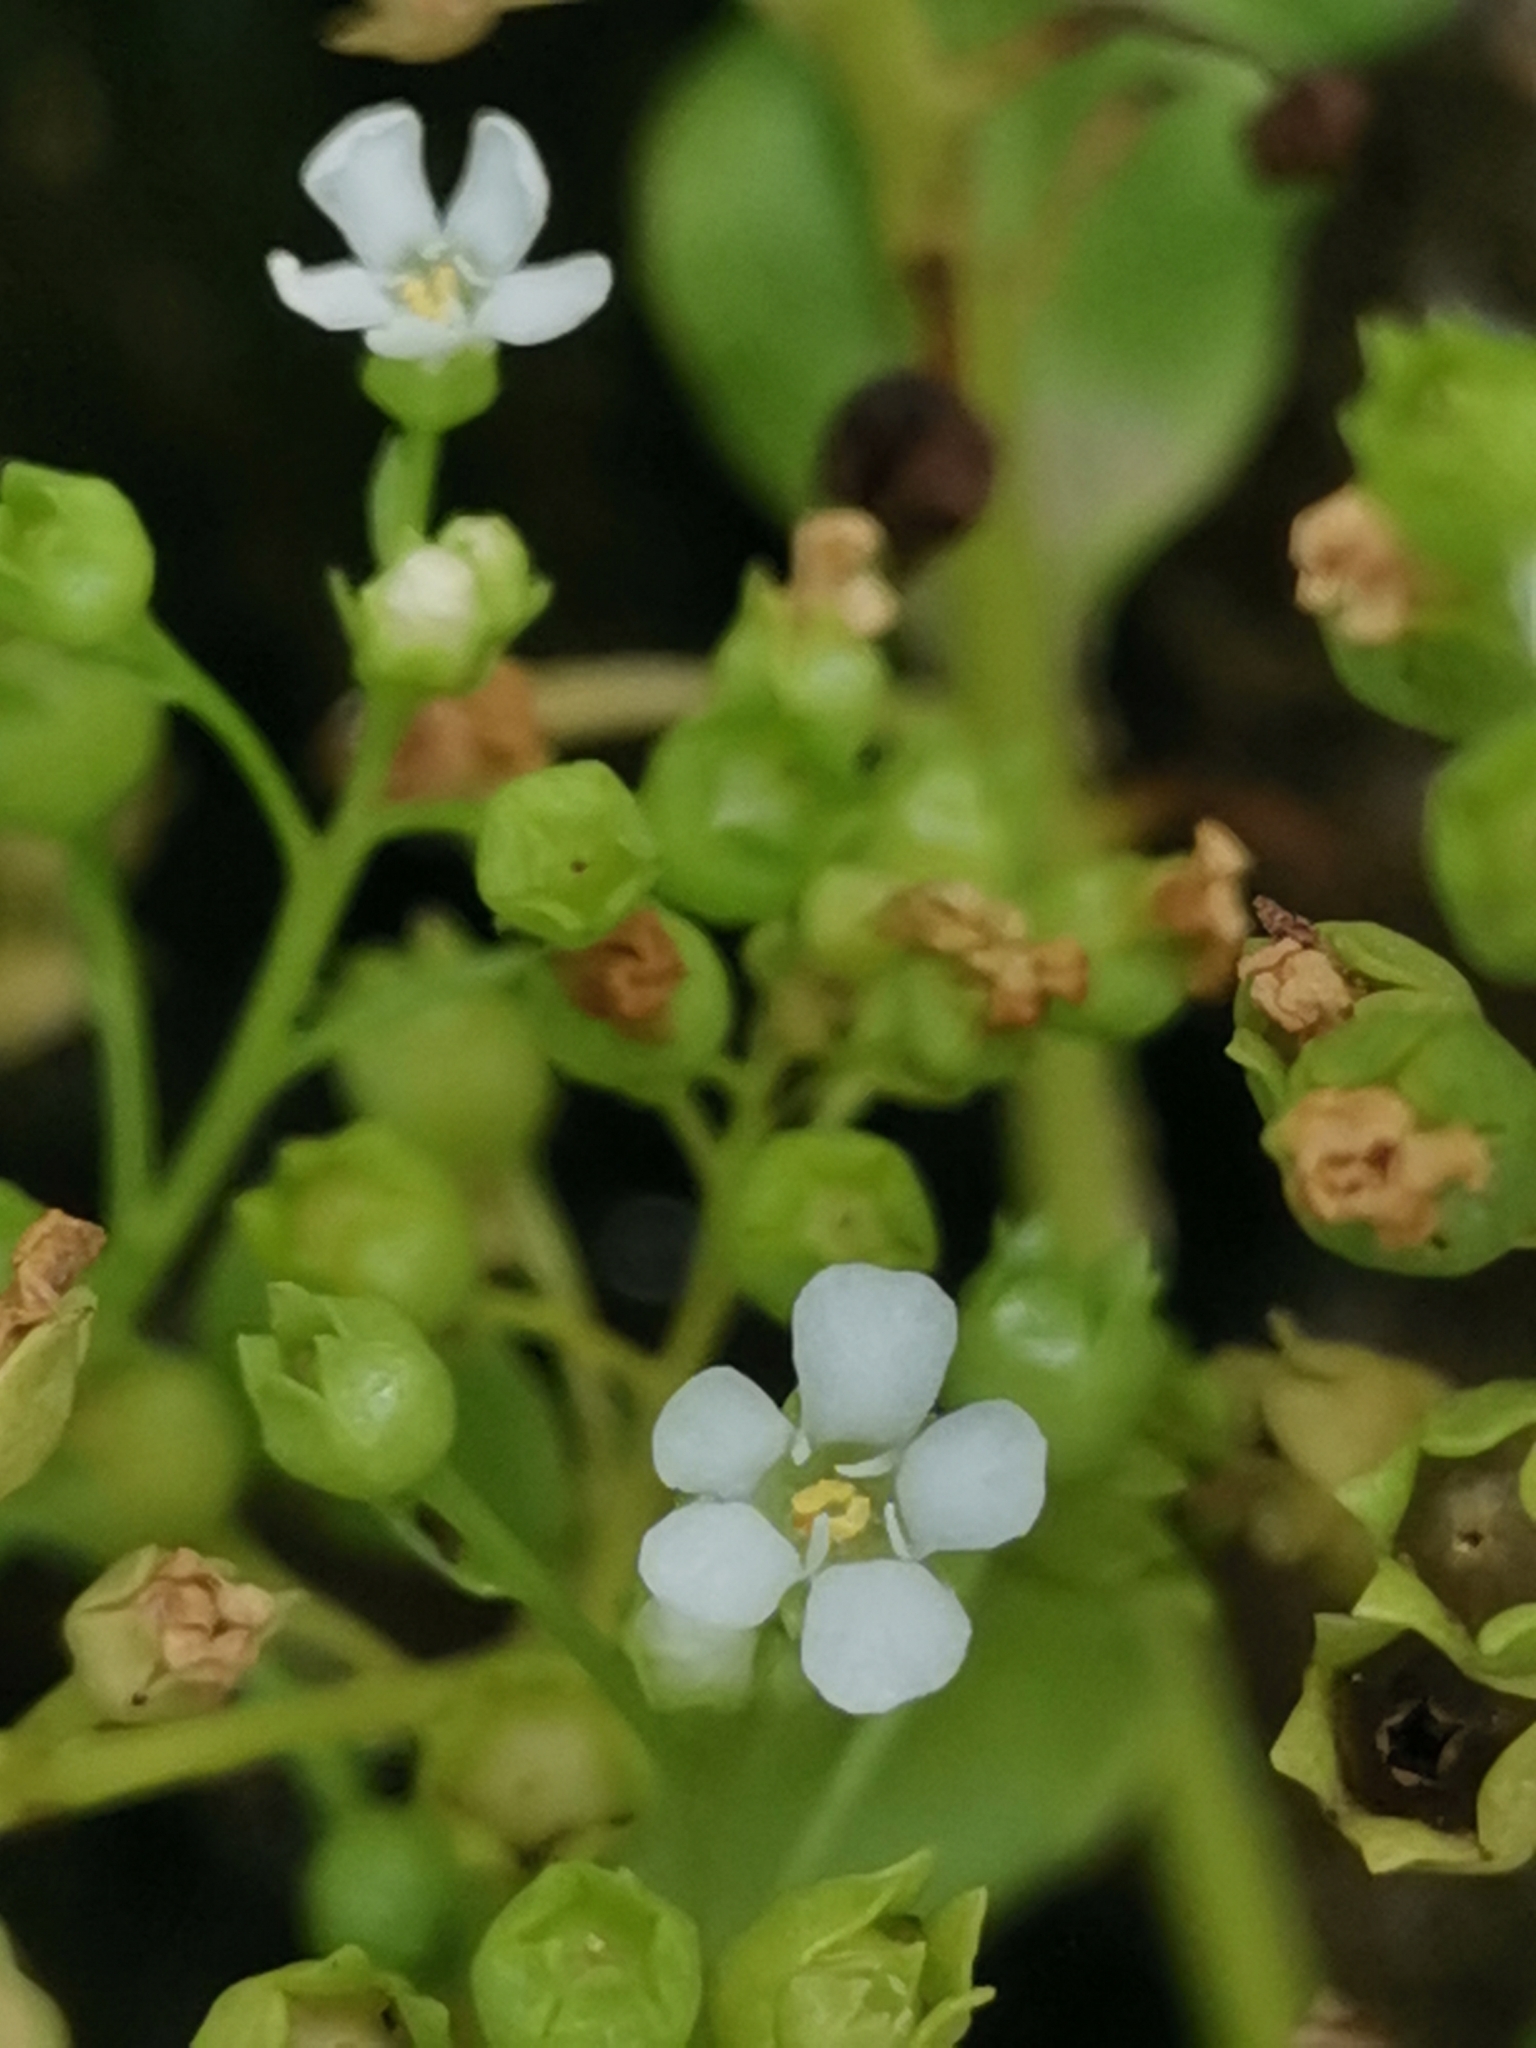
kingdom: Plantae
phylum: Tracheophyta
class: Magnoliopsida
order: Ericales
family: Primulaceae
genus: Samolus
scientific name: Samolus valerandi
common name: Brookweed
